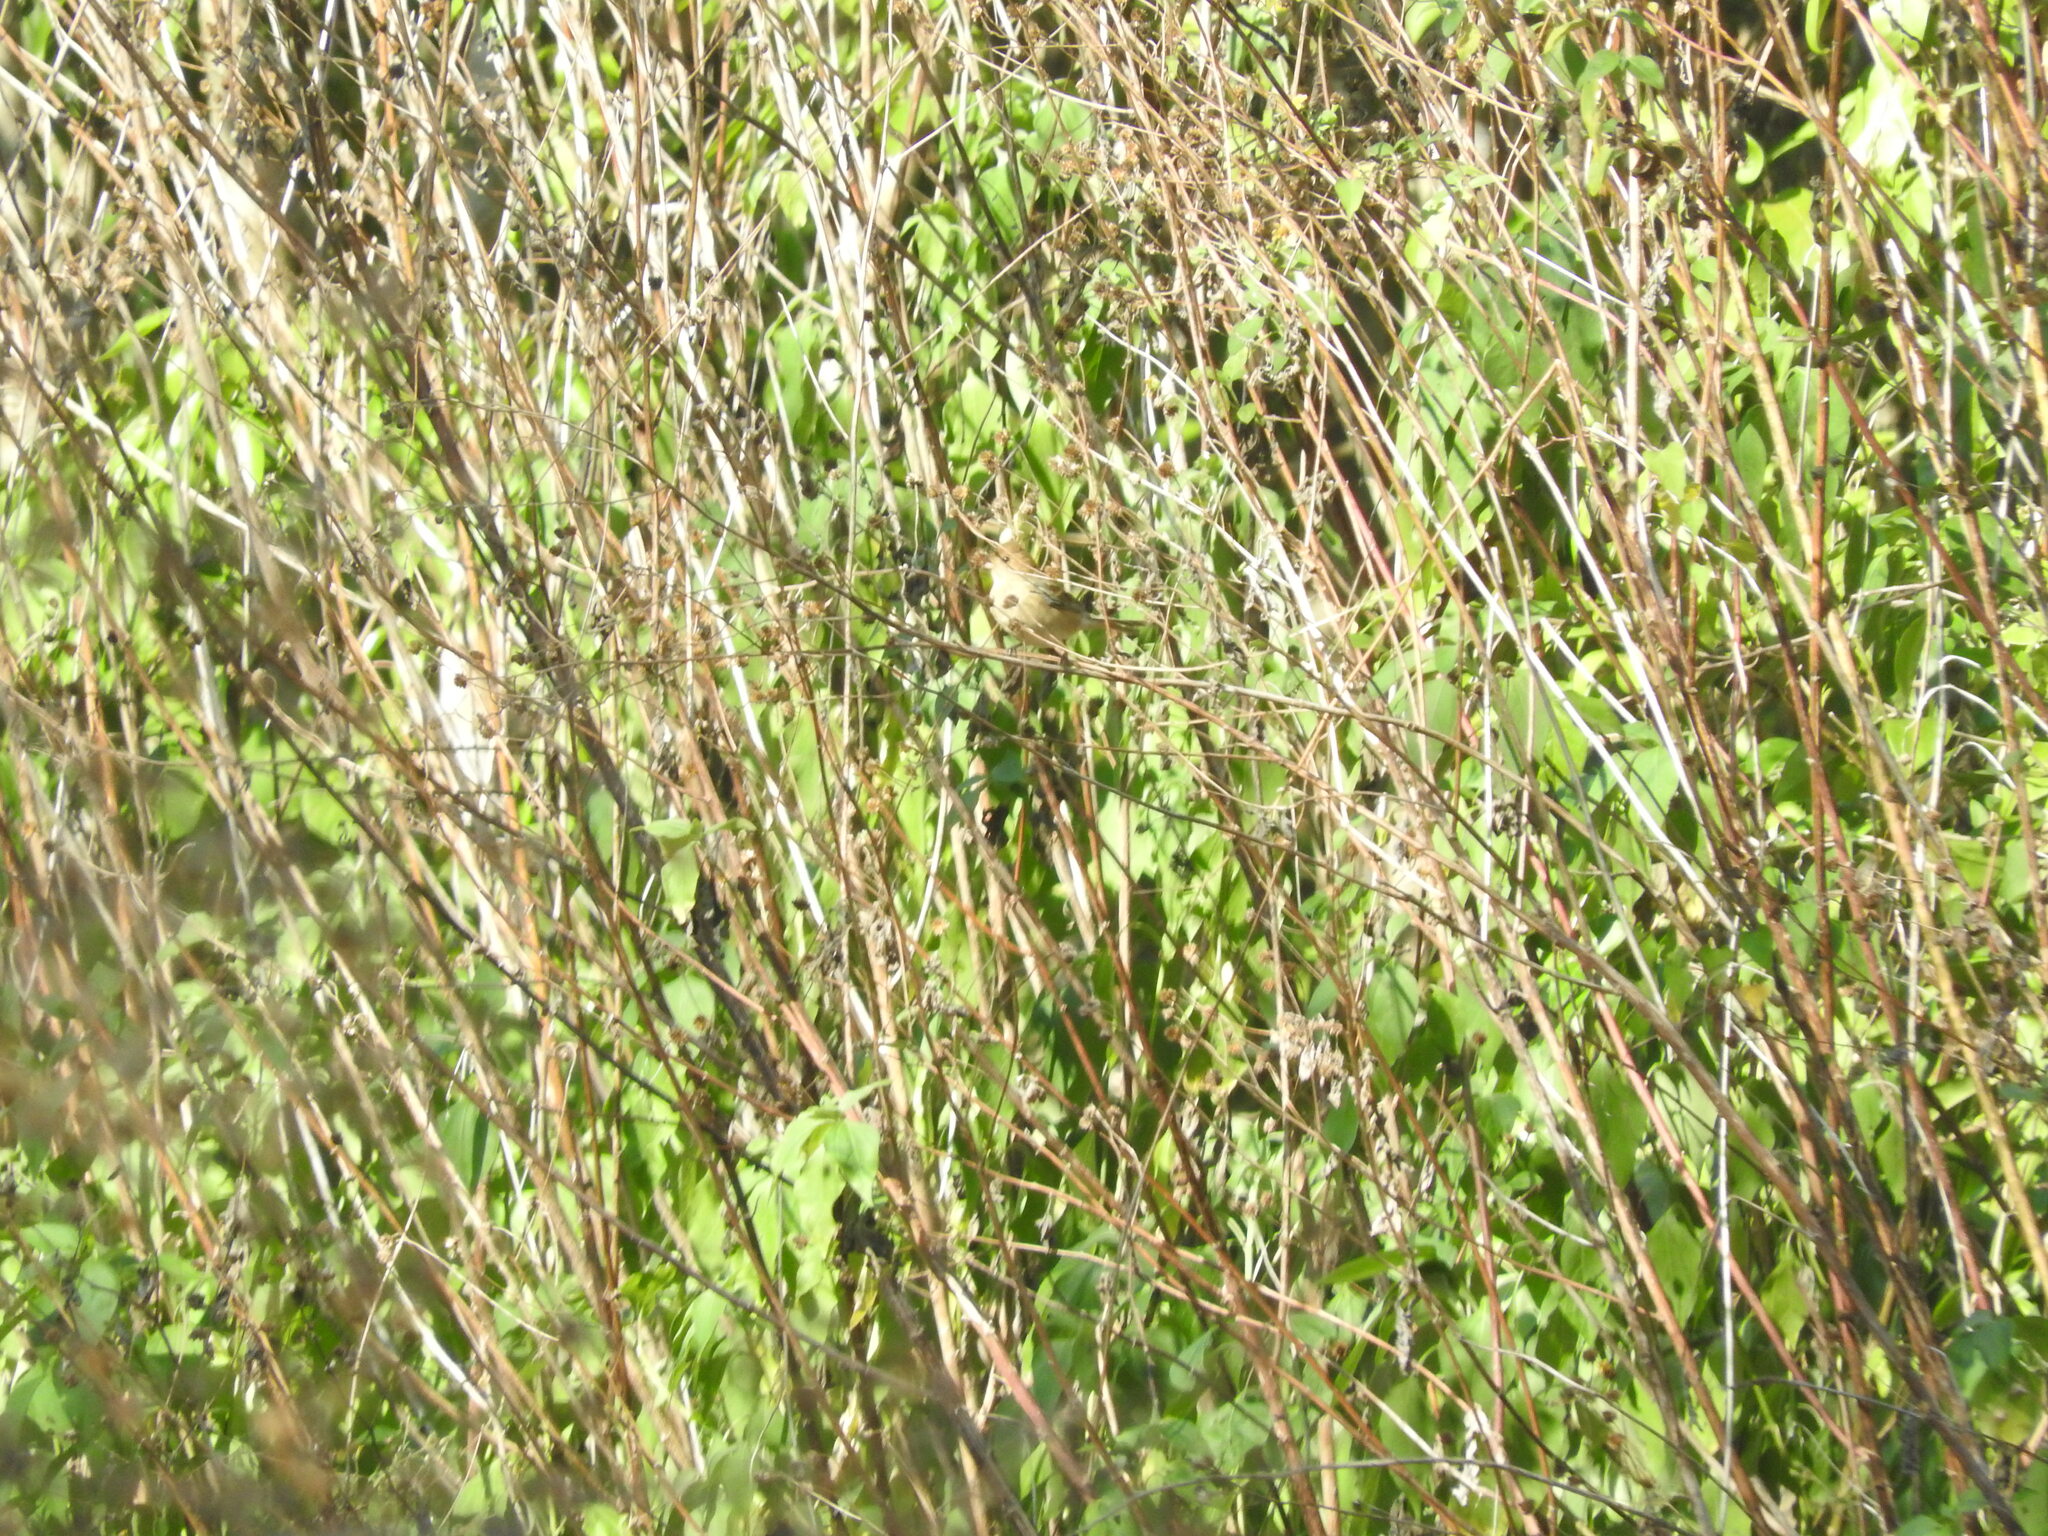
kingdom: Animalia
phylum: Chordata
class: Aves
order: Passeriformes
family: Cardinalidae
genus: Passerina
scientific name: Passerina cyanea
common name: Indigo bunting
